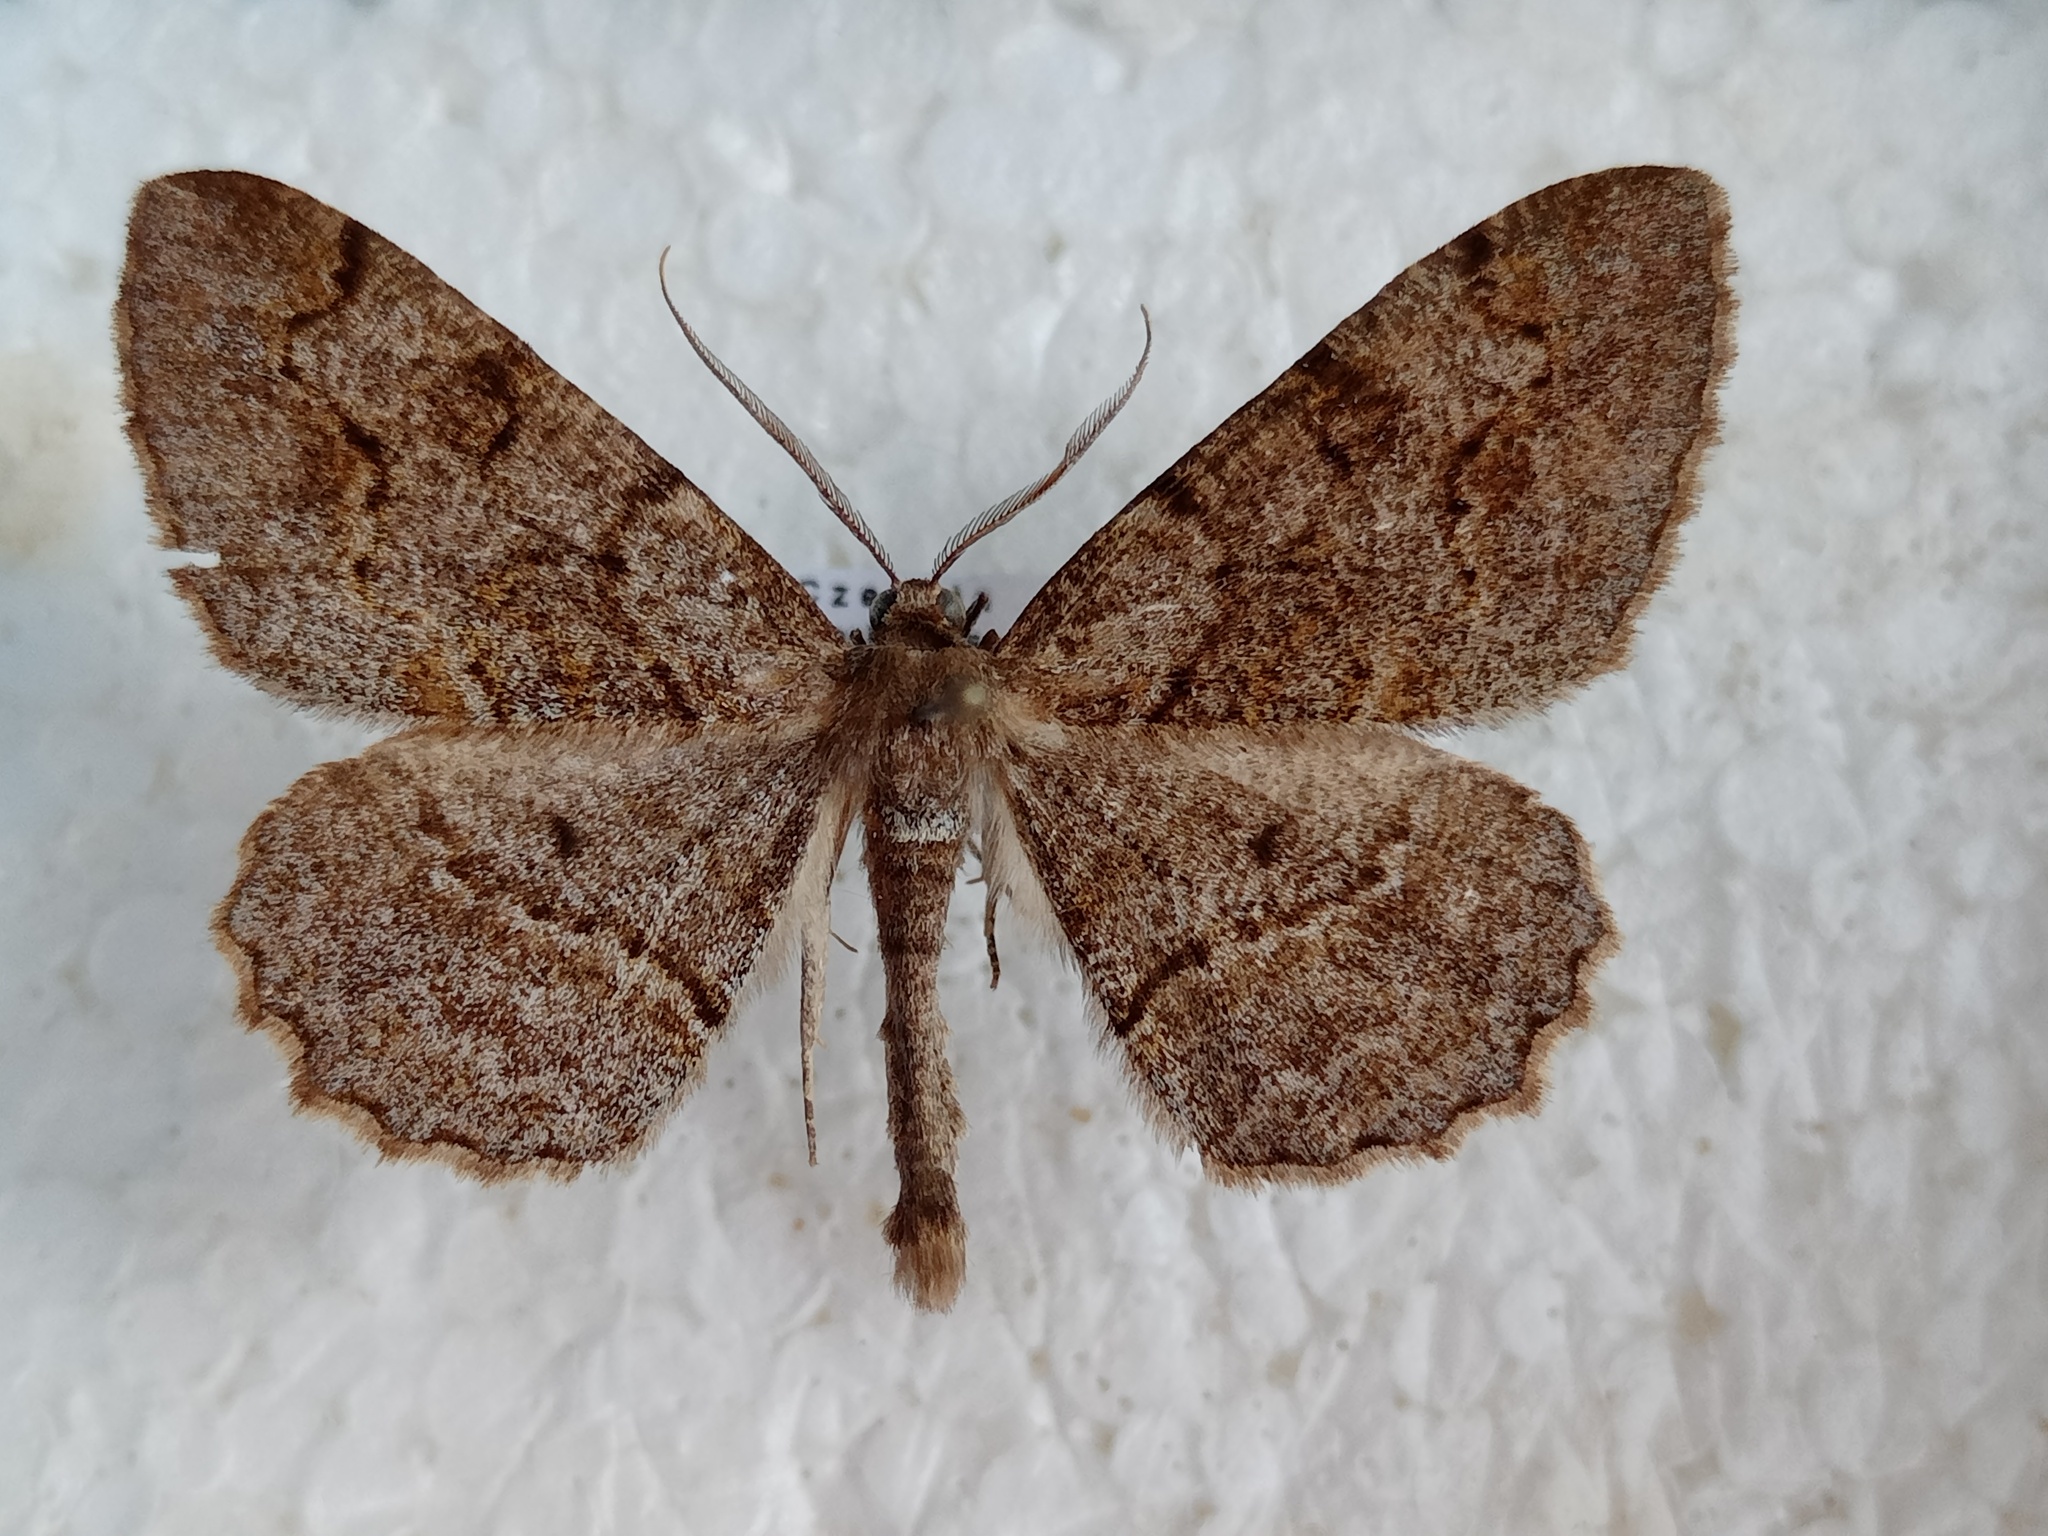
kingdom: Animalia
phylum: Arthropoda
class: Insecta
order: Lepidoptera
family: Geometridae
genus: Alcis
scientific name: Alcis repandata
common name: Mottled beauty
